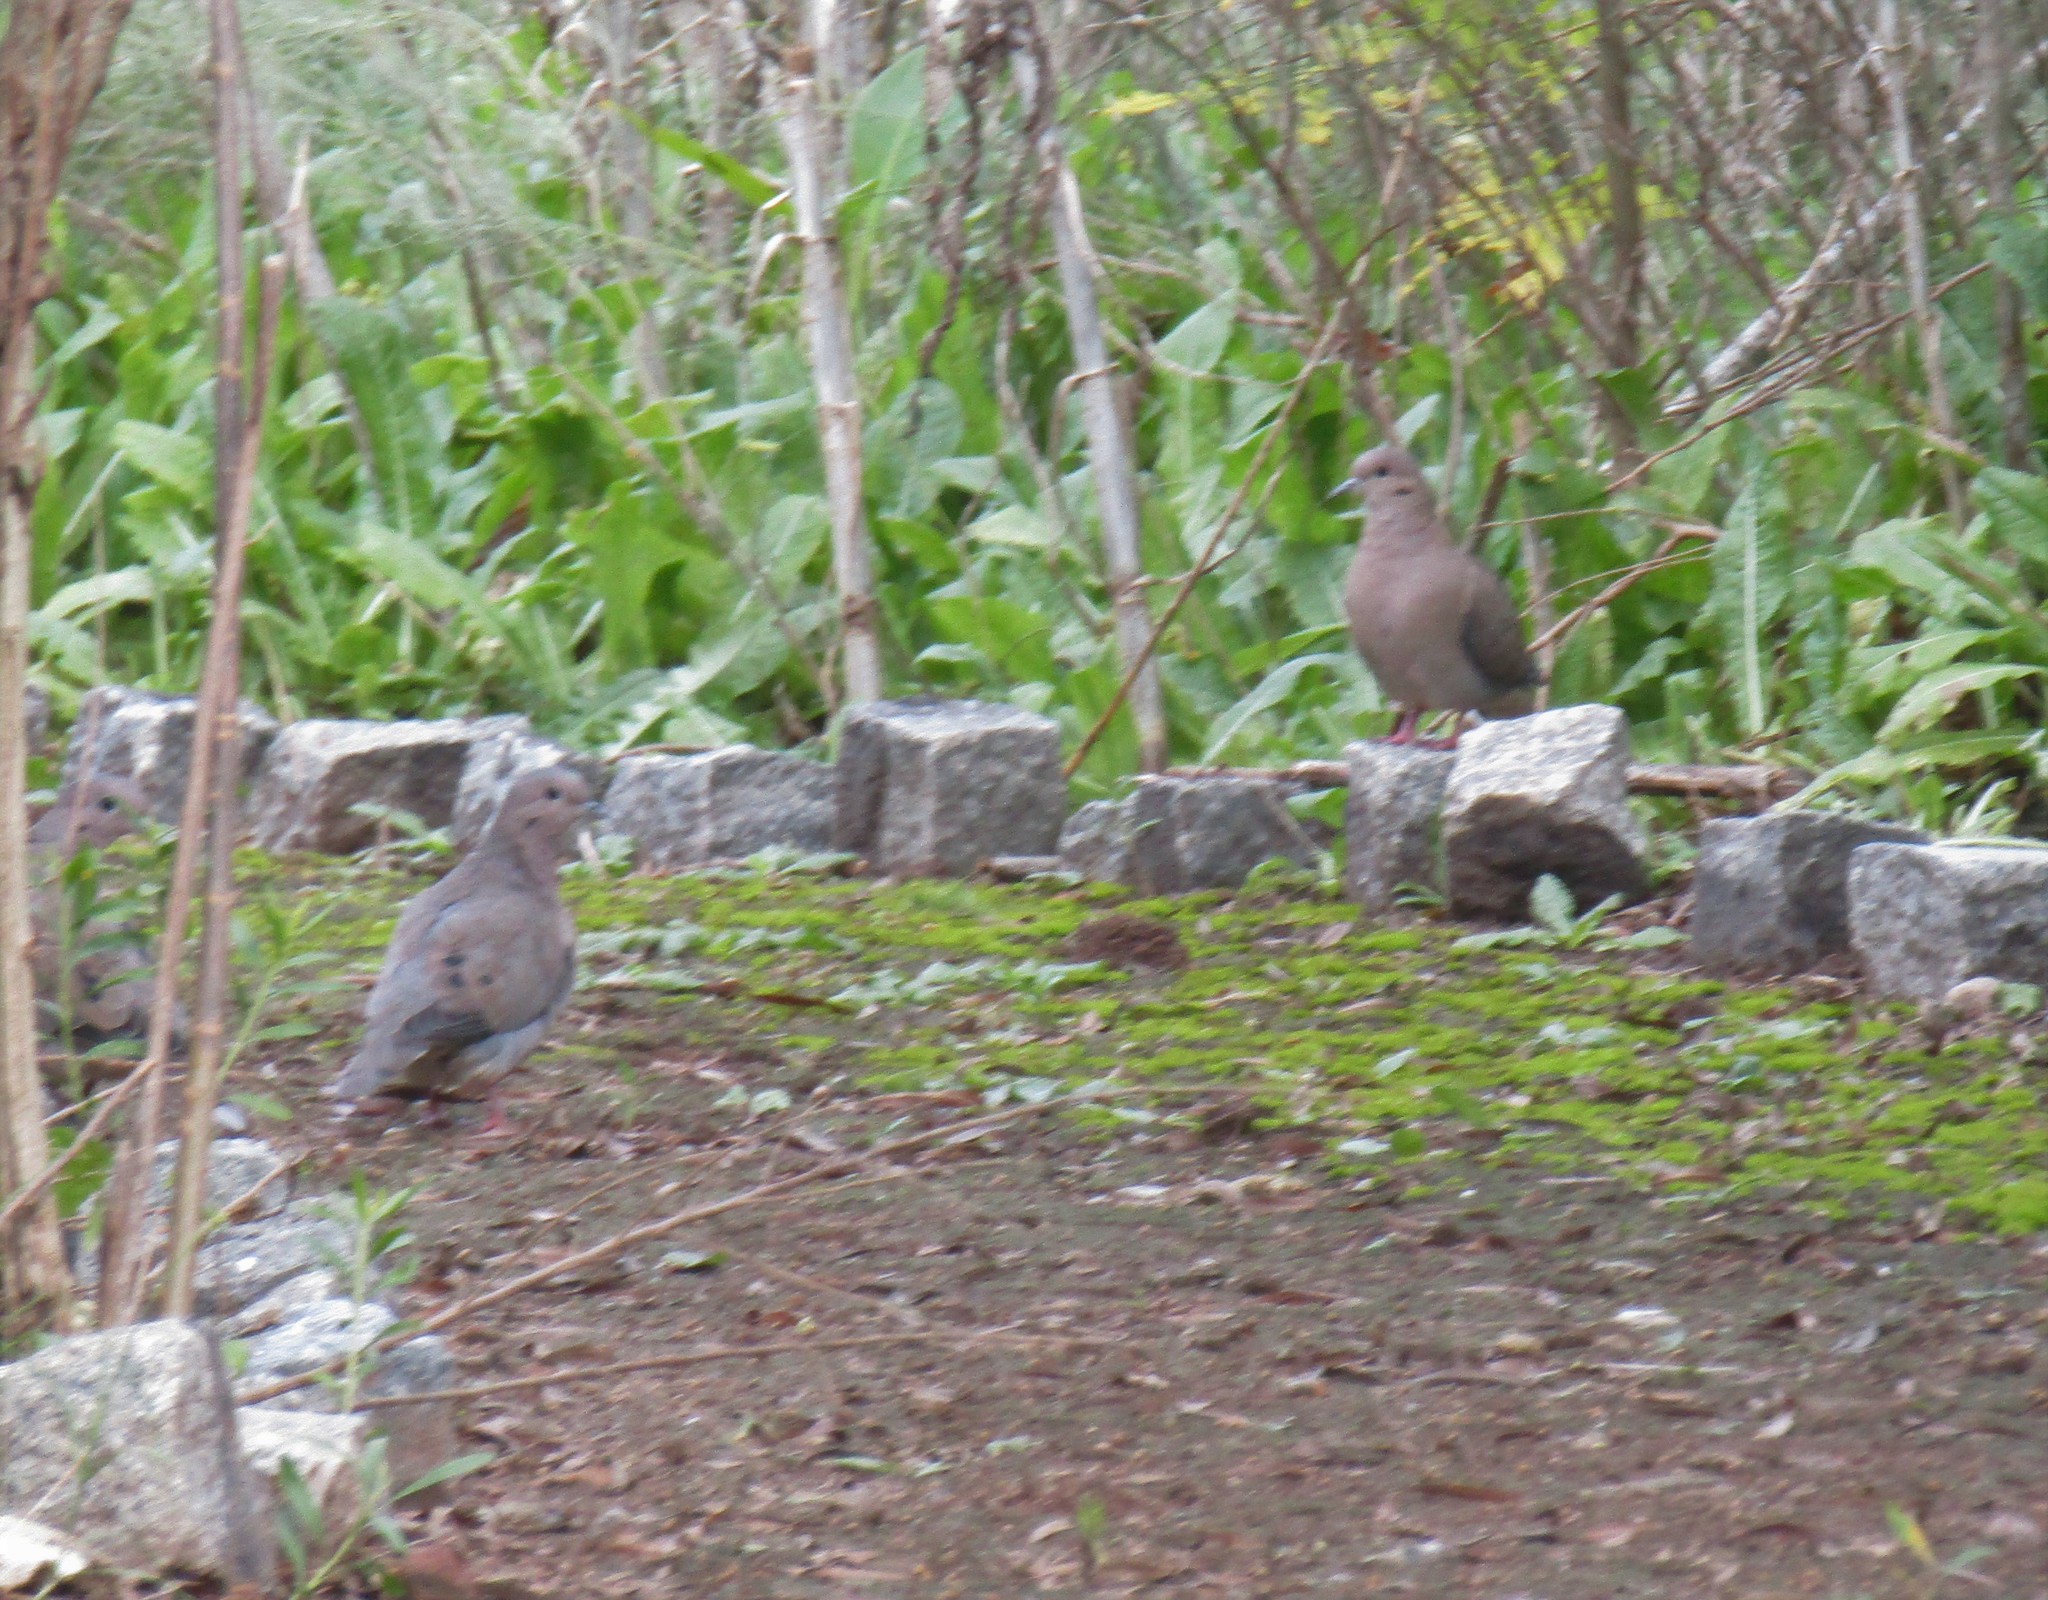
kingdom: Animalia
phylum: Chordata
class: Aves
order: Columbiformes
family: Columbidae
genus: Zenaida
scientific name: Zenaida auriculata
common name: Eared dove
